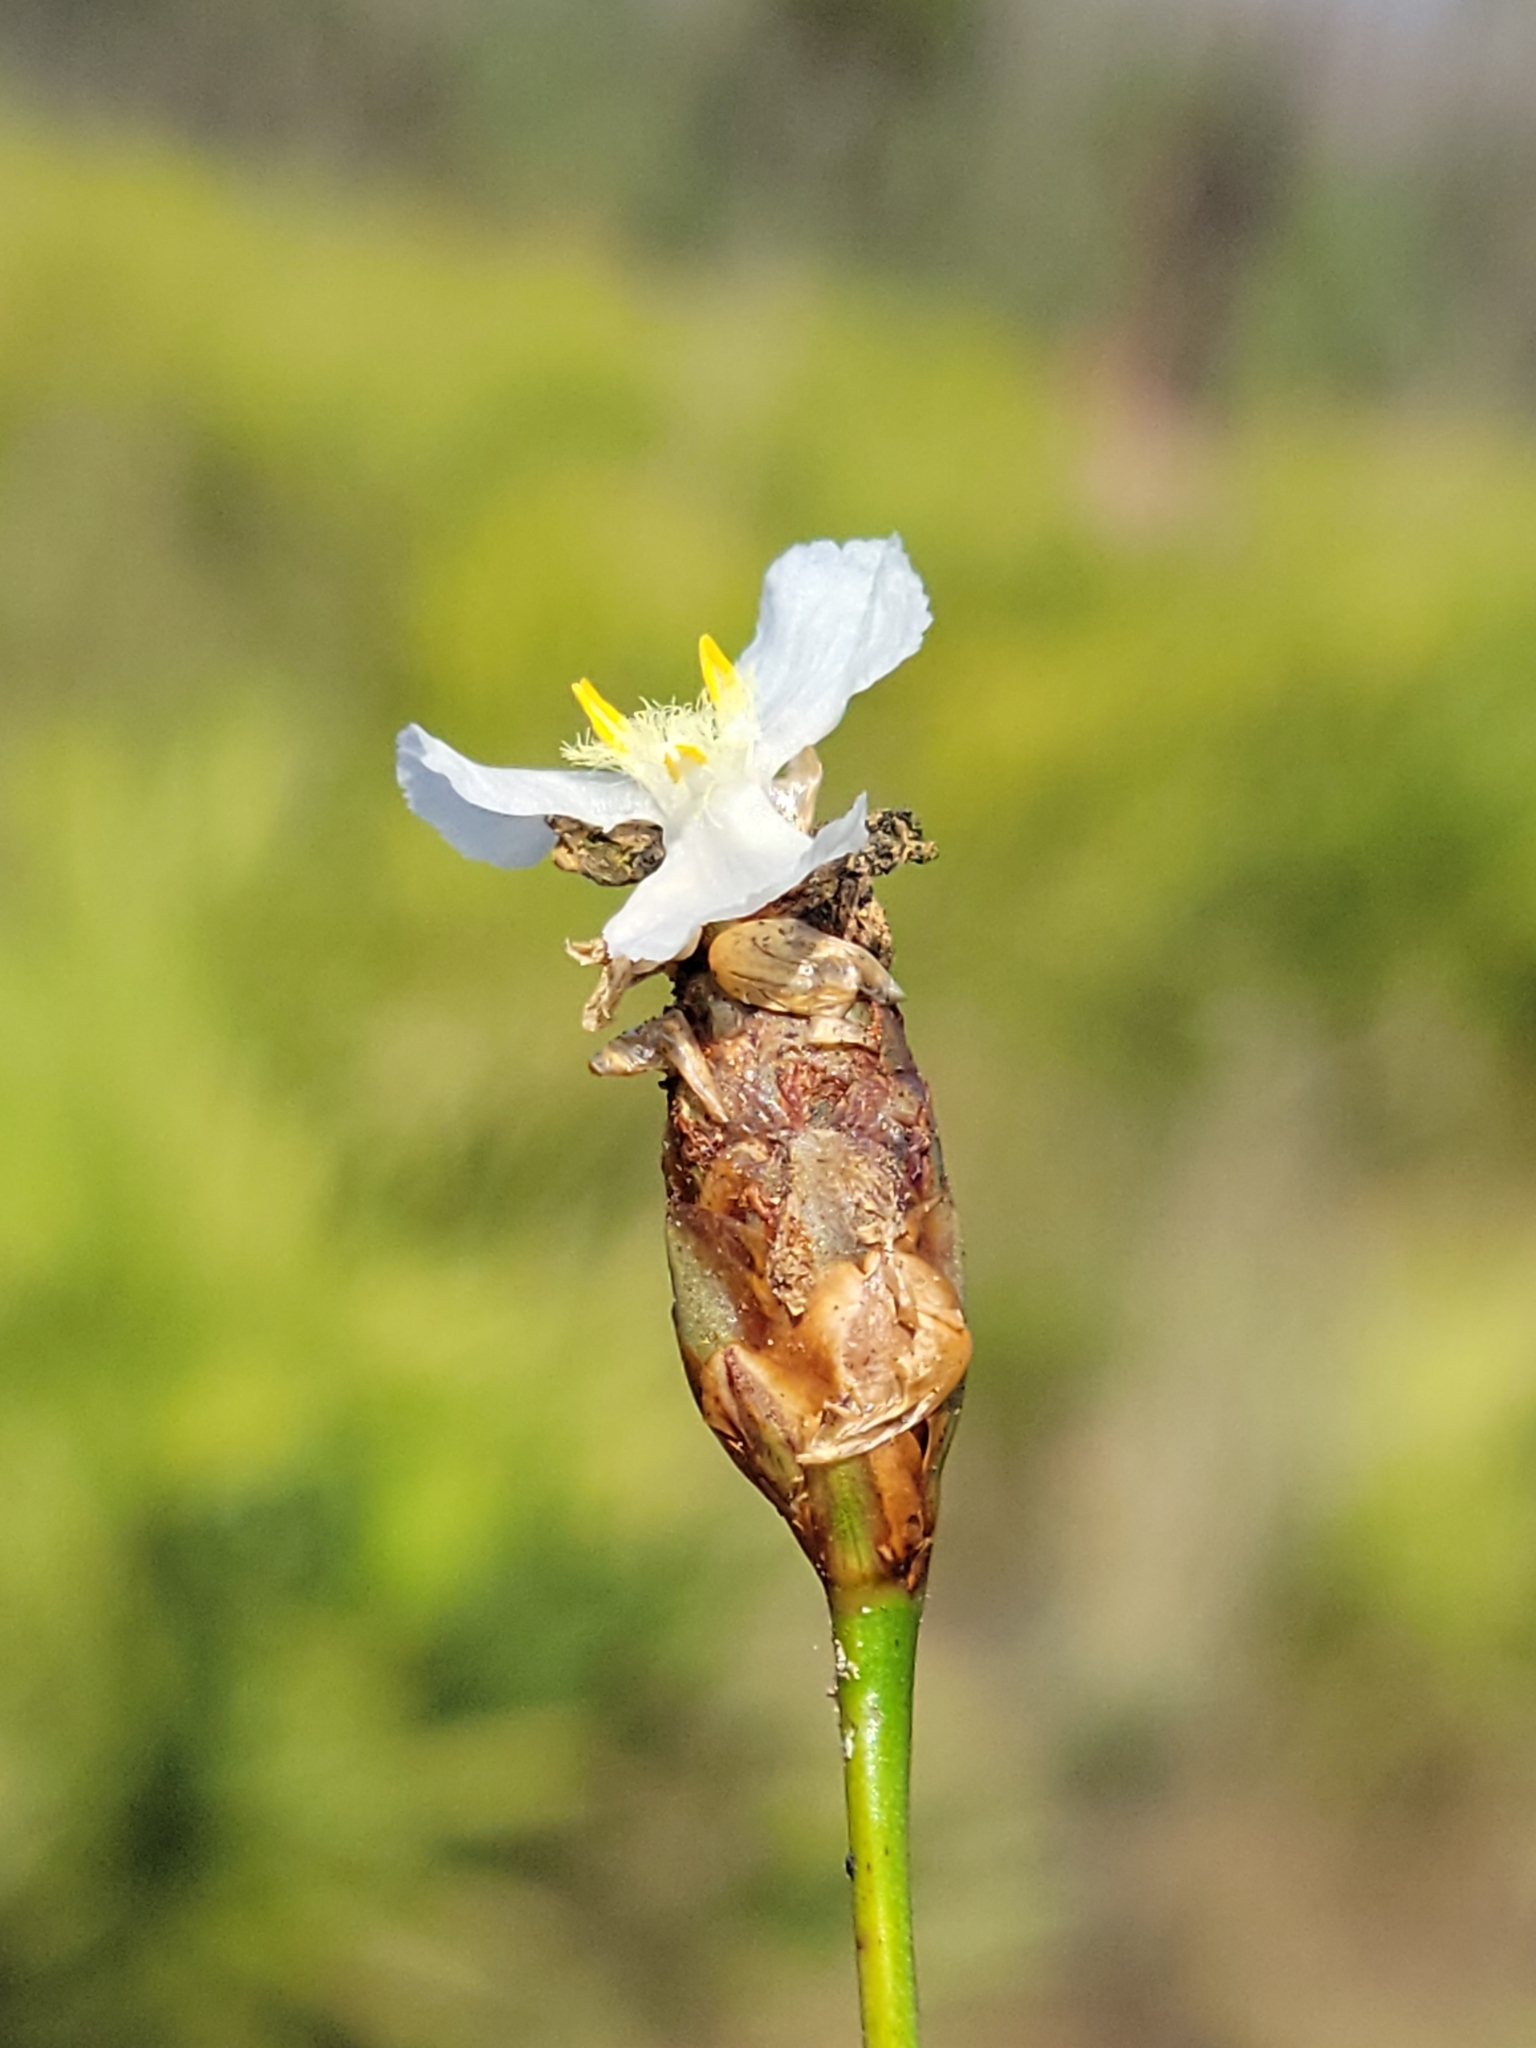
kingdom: Plantae
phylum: Tracheophyta
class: Liliopsida
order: Poales
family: Xyridaceae
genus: Xyris
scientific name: Xyris caroliniana
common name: Carolina yellow-eyed-grass
